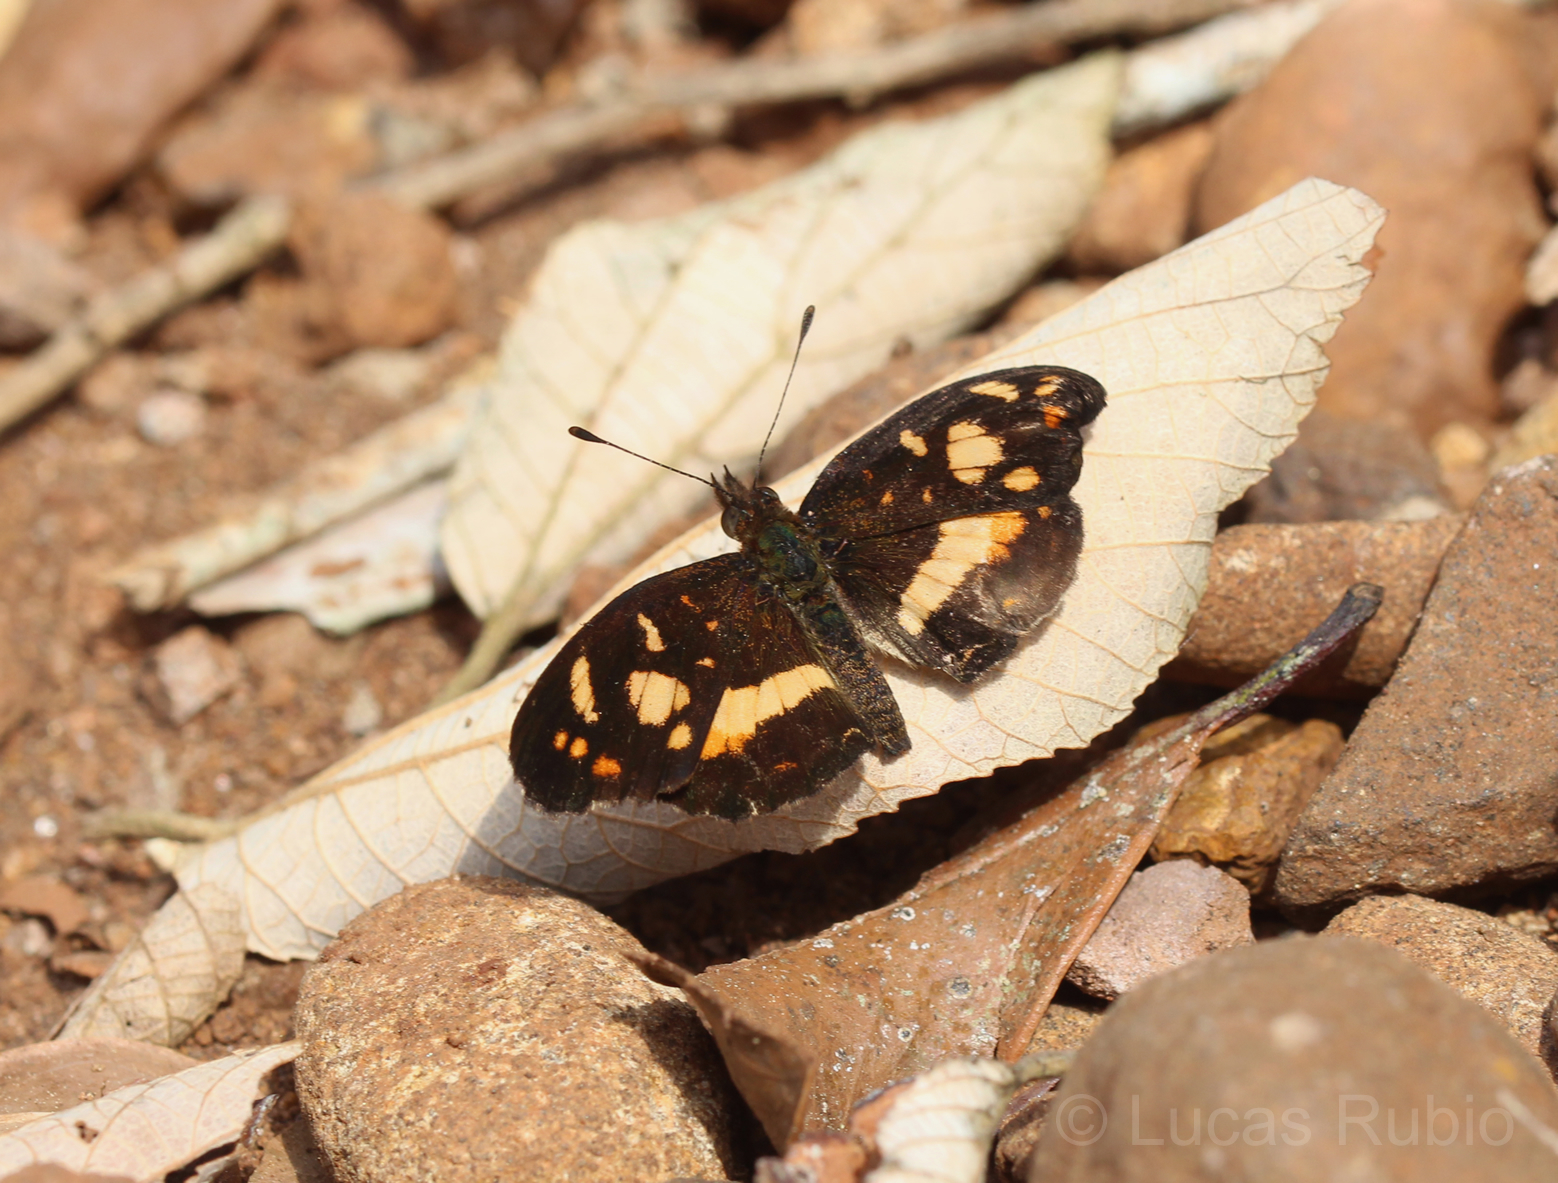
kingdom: Animalia
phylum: Arthropoda
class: Insecta
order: Lepidoptera
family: Nymphalidae
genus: Ortilia
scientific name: Ortilia orthia
